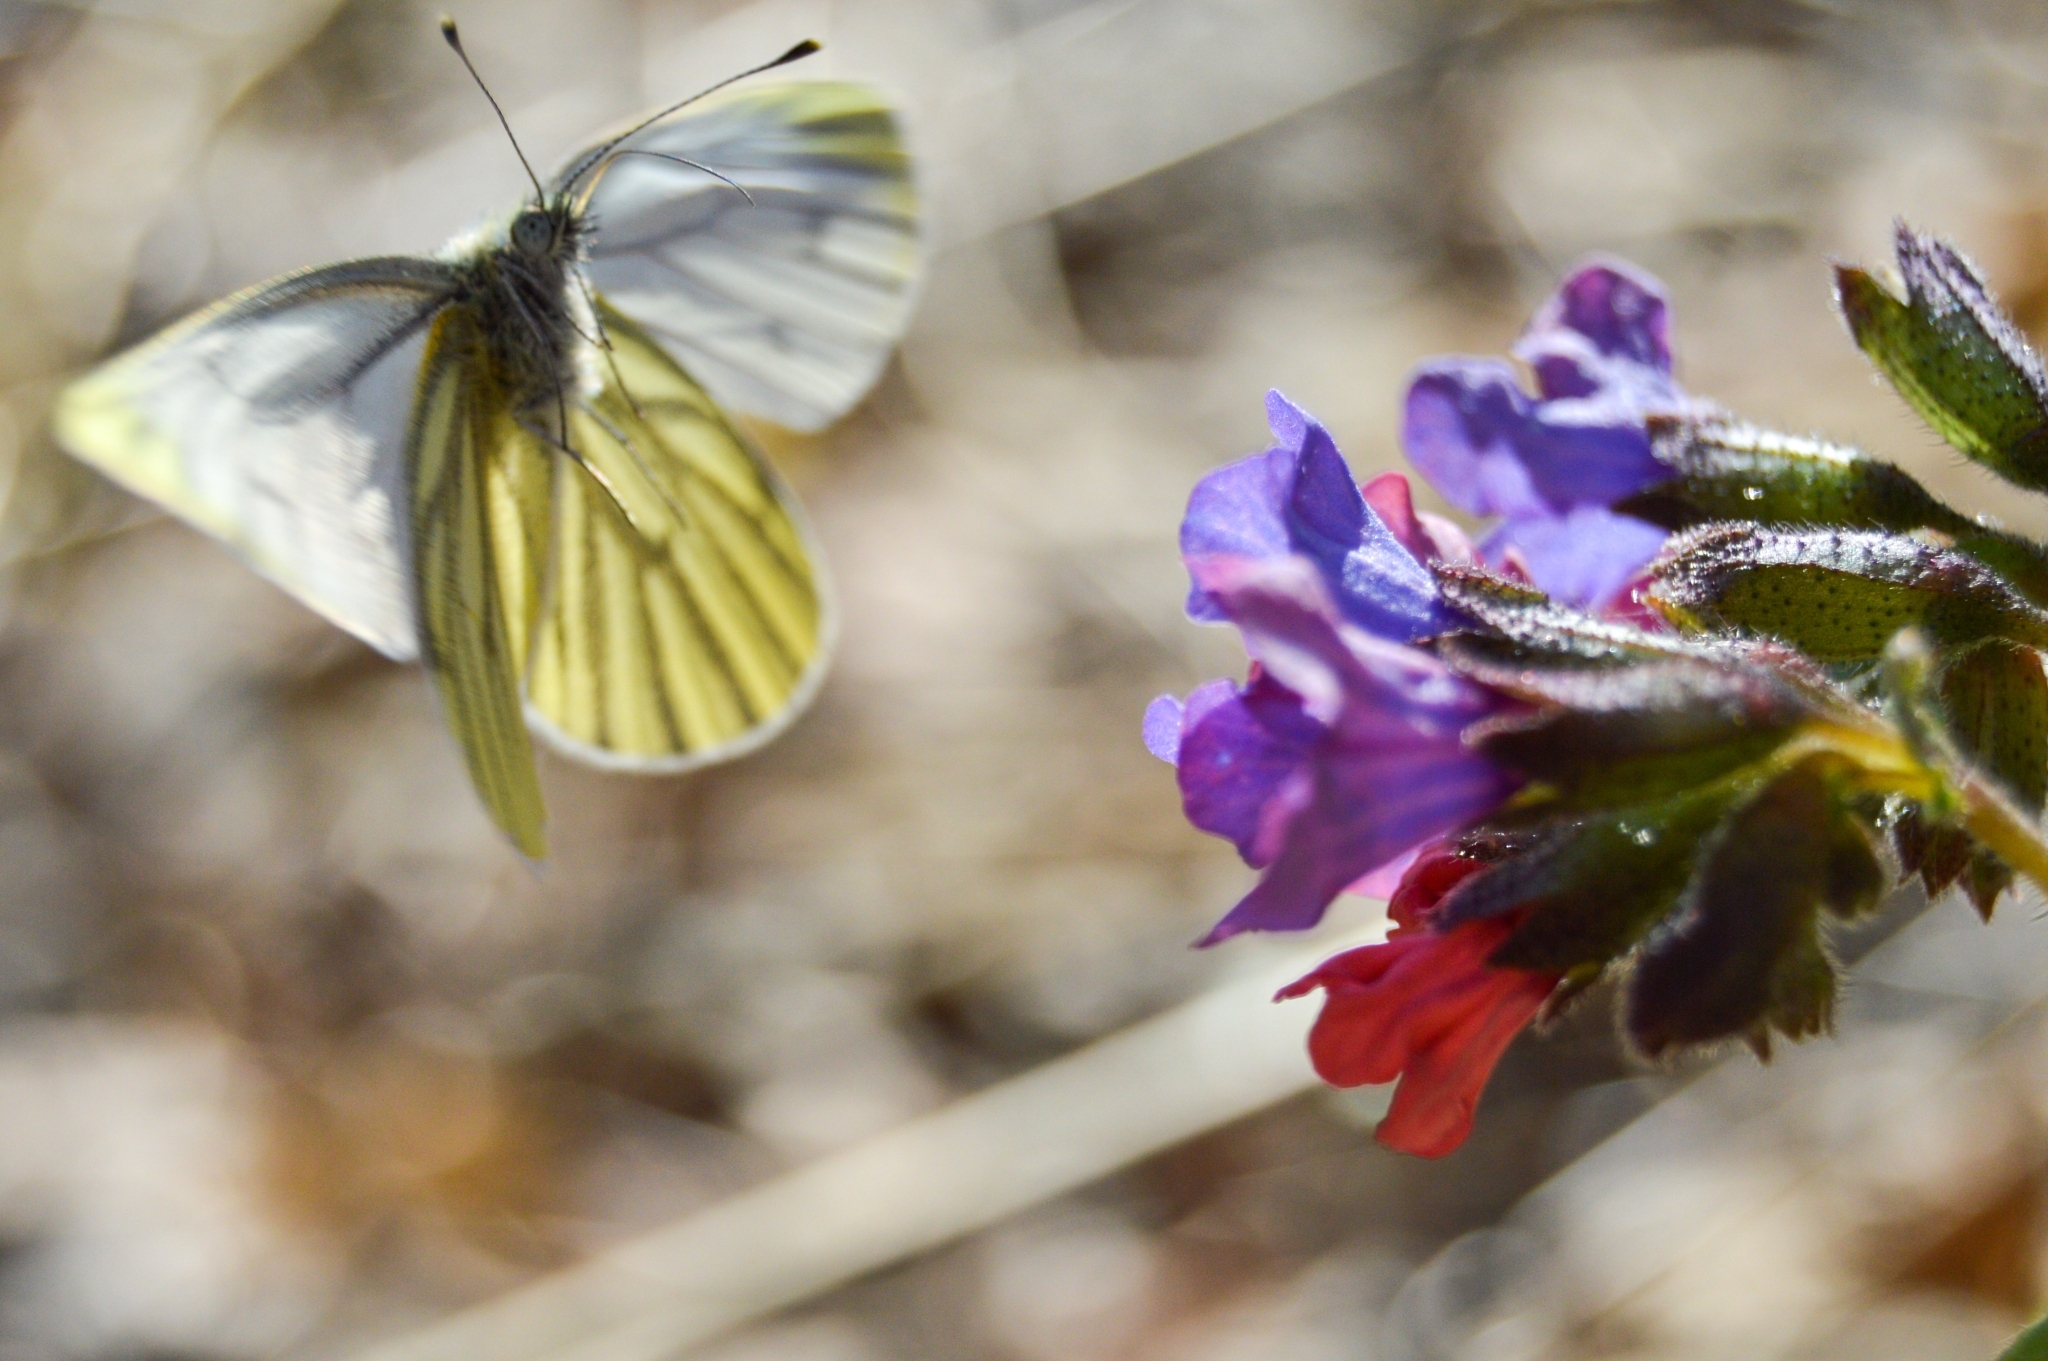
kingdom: Animalia
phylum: Arthropoda
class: Insecta
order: Lepidoptera
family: Pieridae
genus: Pieris
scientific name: Pieris napi
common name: Green-veined white
